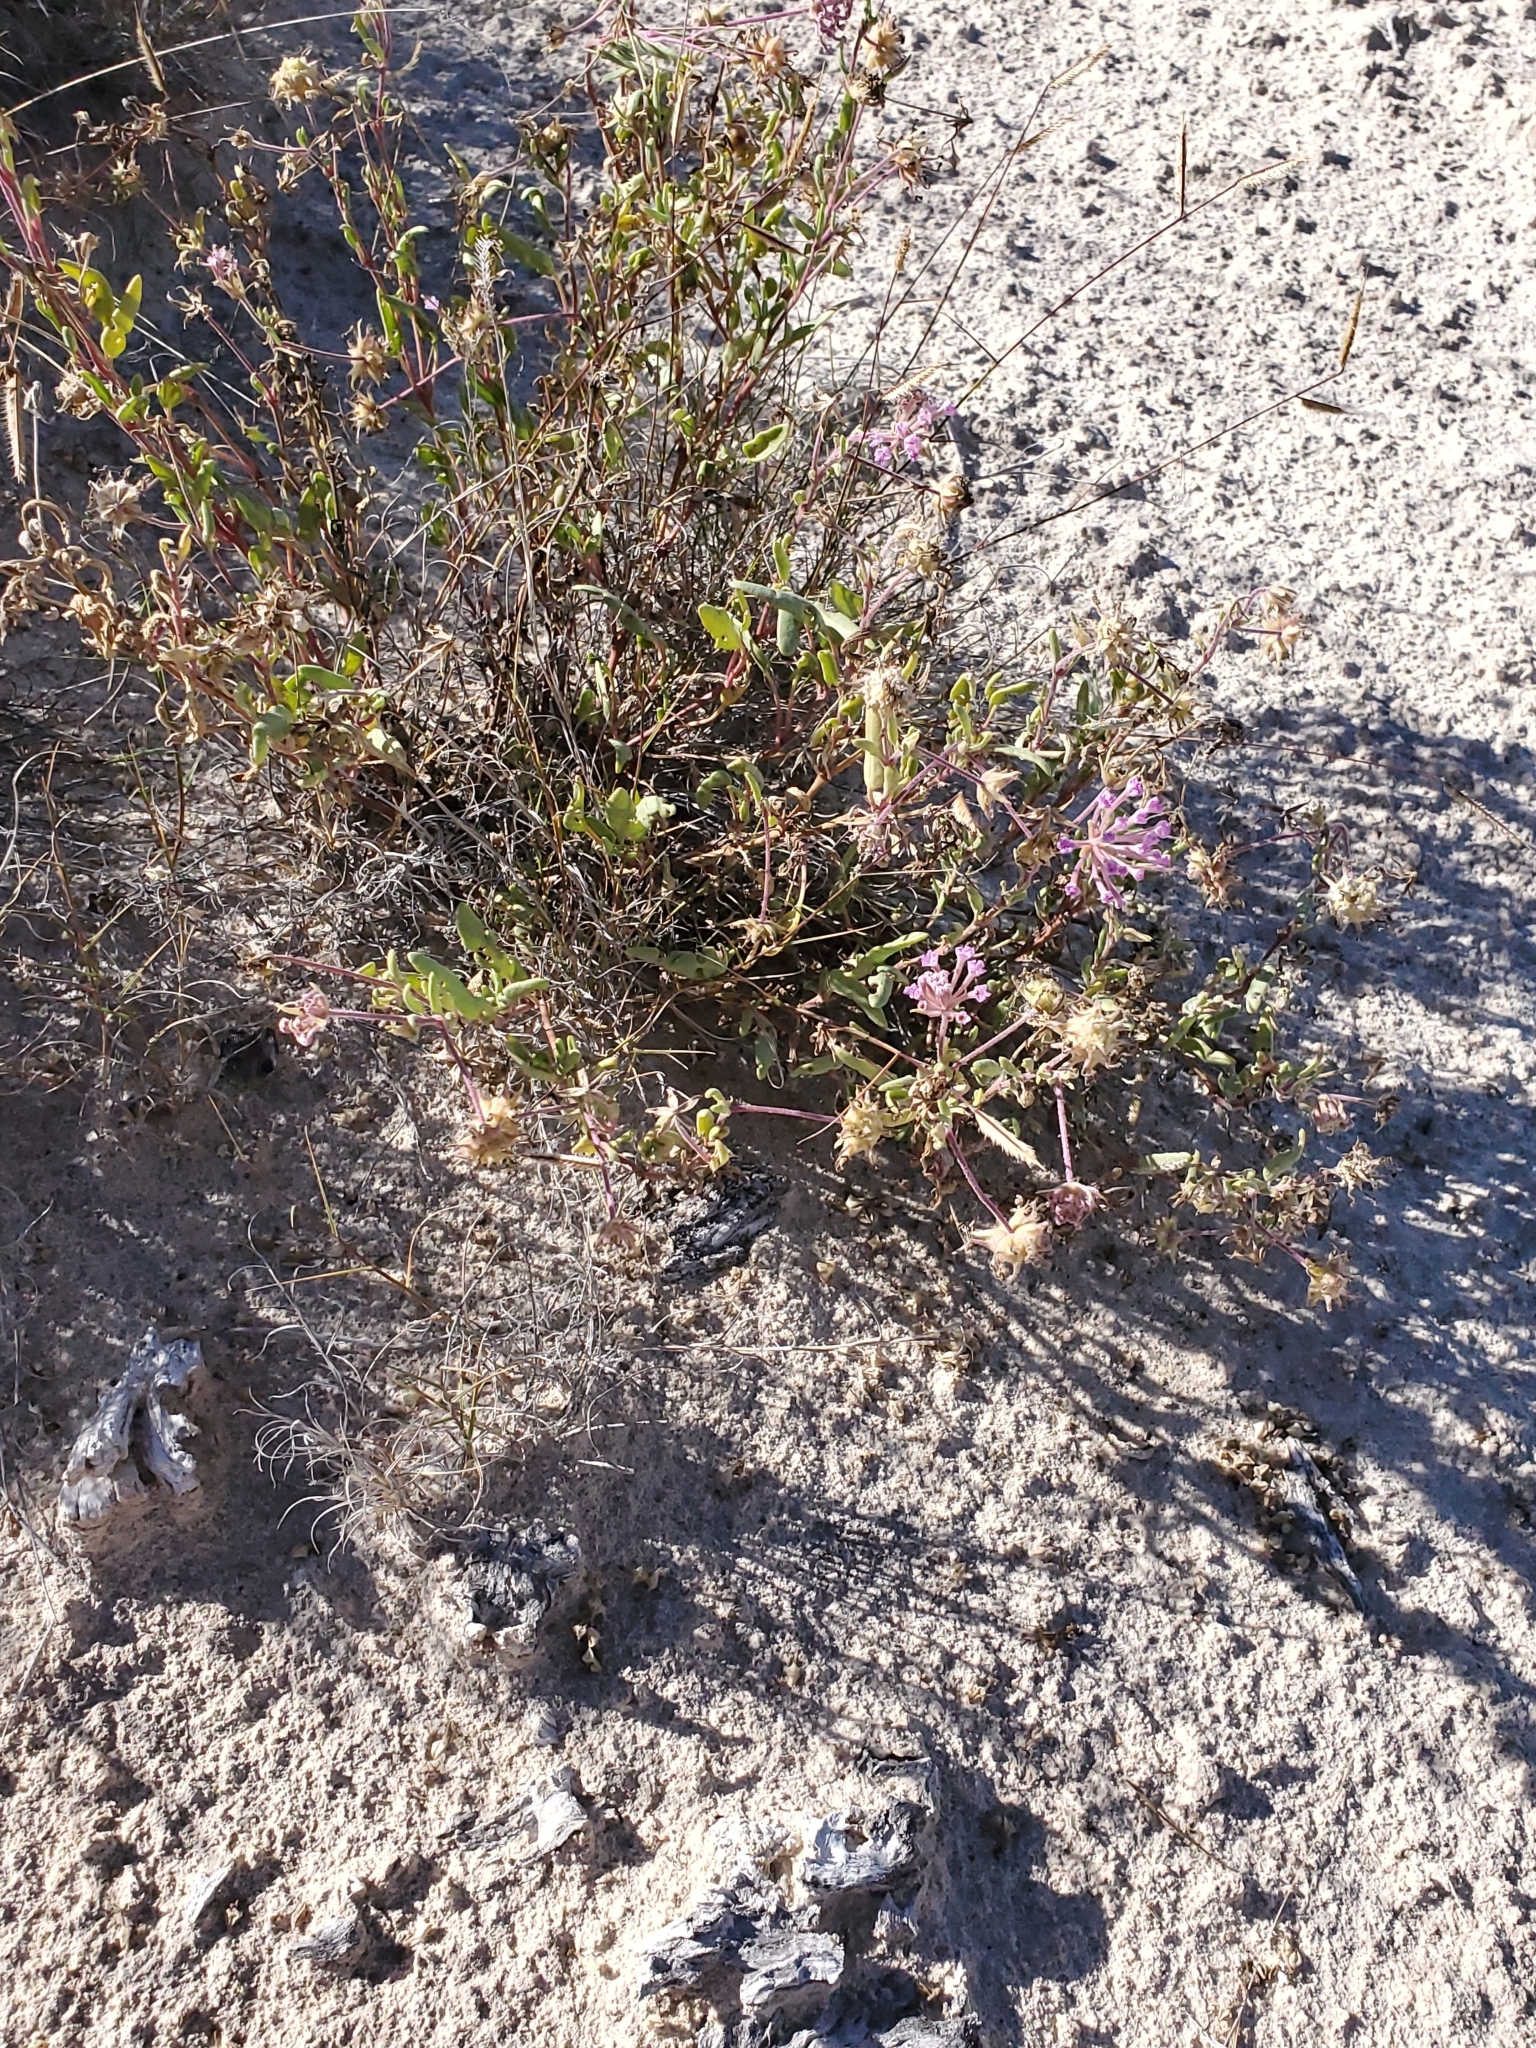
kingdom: Plantae
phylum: Tracheophyta
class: Magnoliopsida
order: Caryophyllales
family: Nyctaginaceae
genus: Abronia
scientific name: Abronia angustifolia
